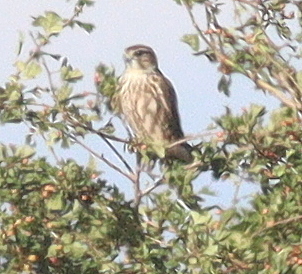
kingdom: Animalia
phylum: Chordata
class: Aves
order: Falconiformes
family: Falconidae
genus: Falco
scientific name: Falco columbarius
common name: Merlin
